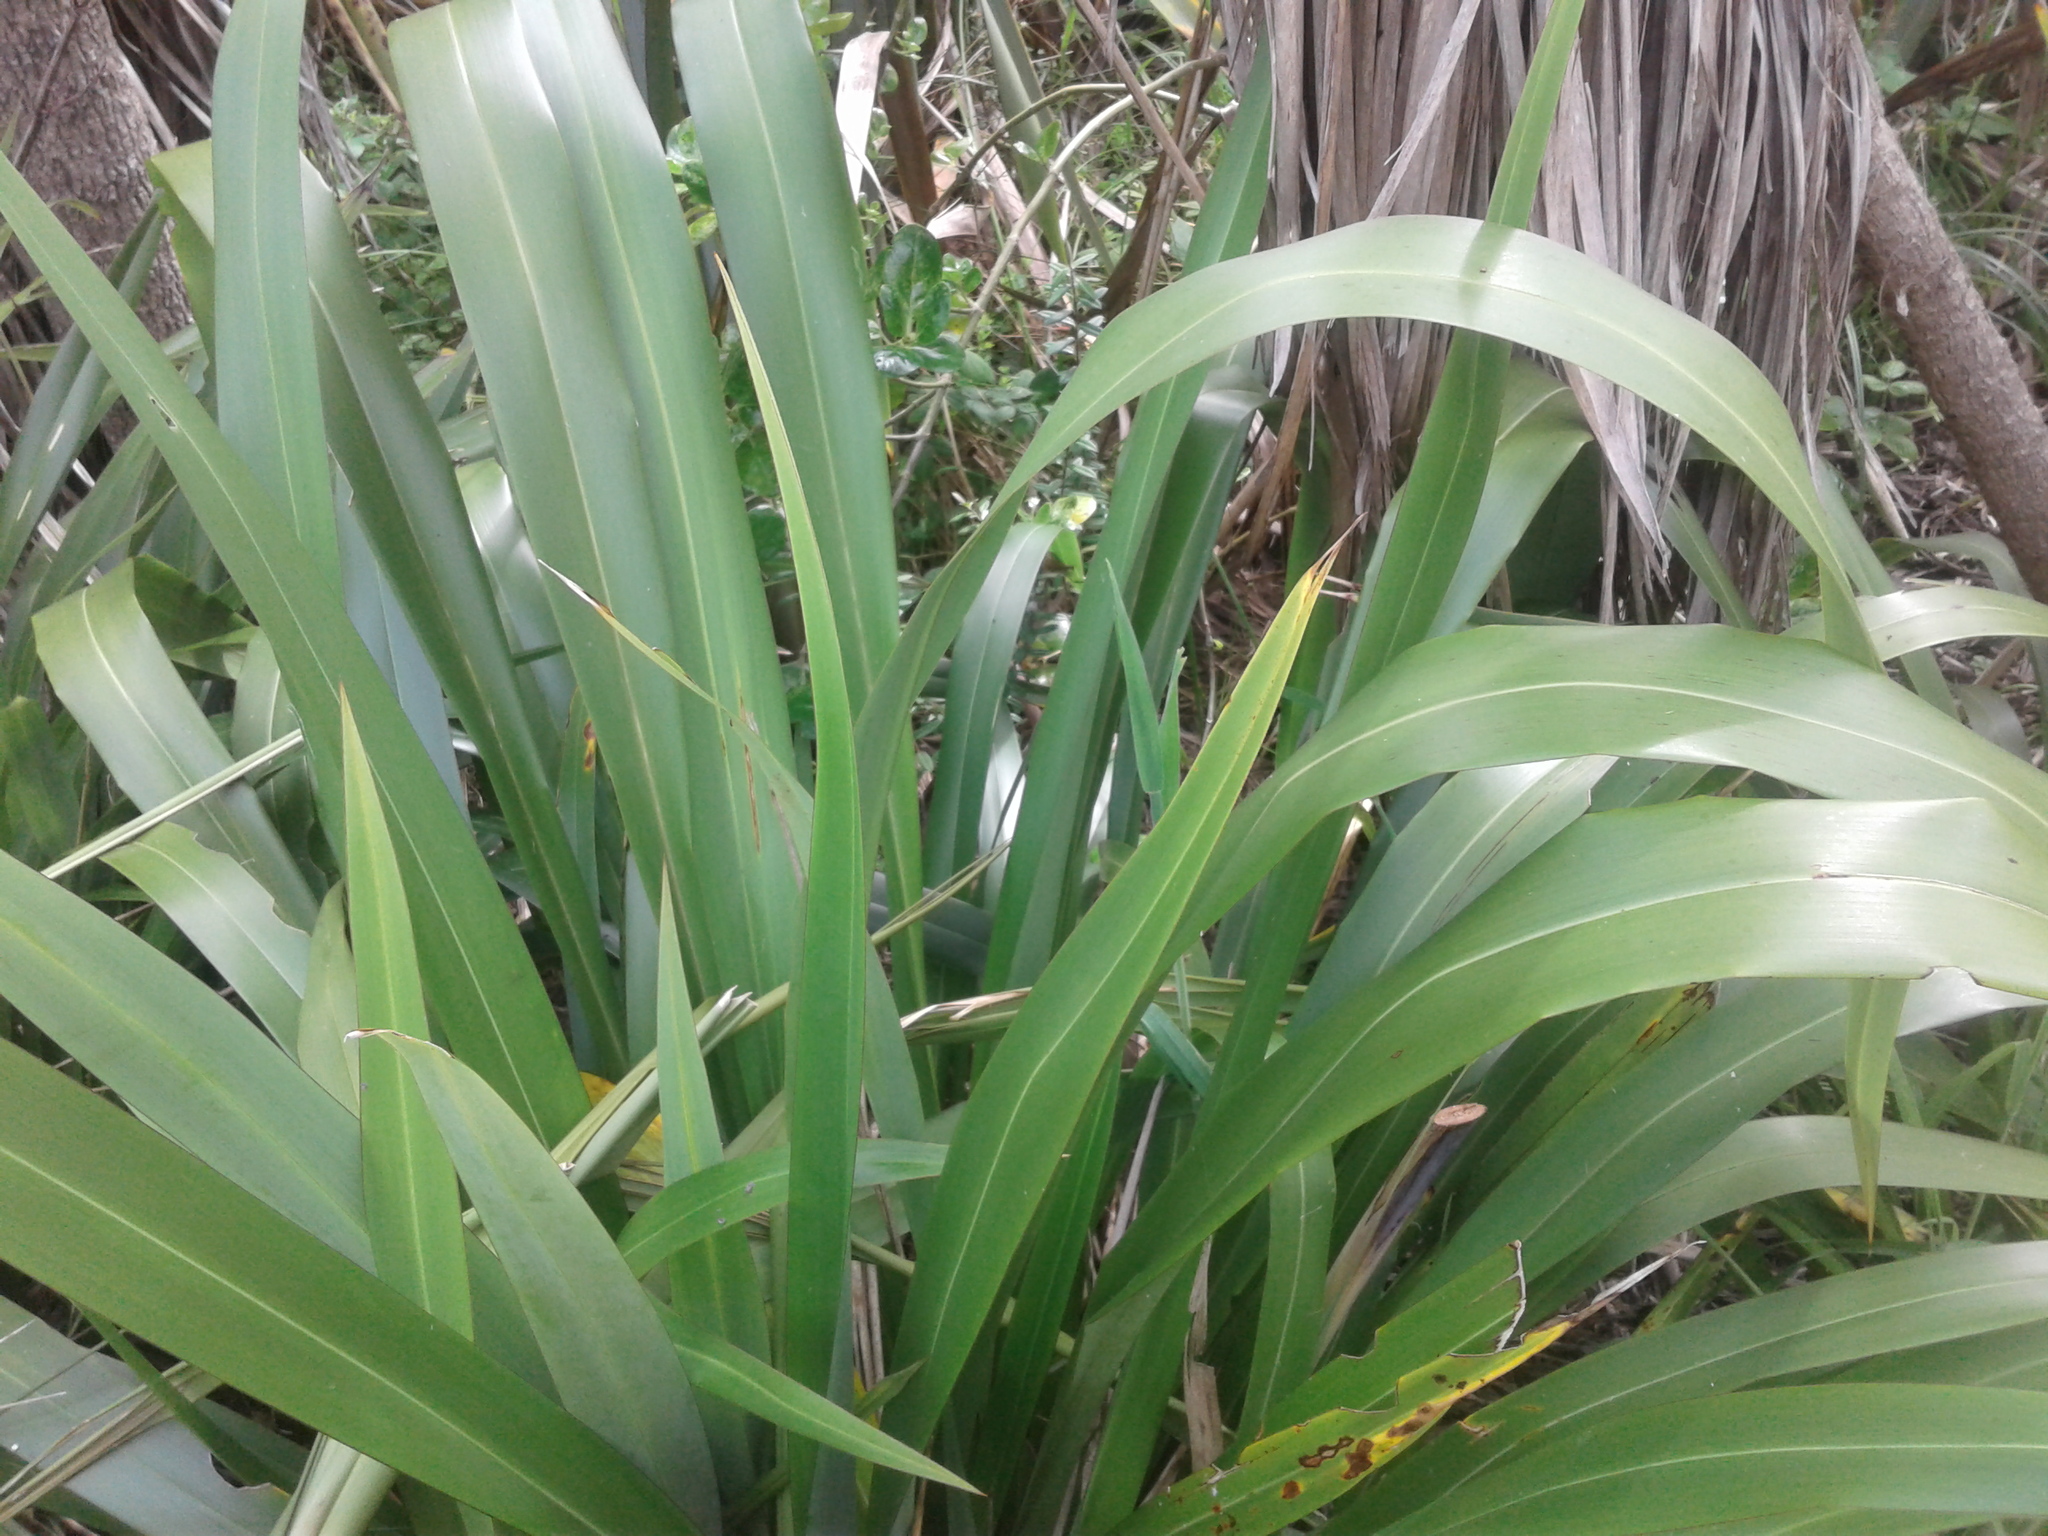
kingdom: Plantae
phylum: Tracheophyta
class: Liliopsida
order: Asparagales
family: Asphodelaceae
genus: Phormium
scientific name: Phormium colensoi
